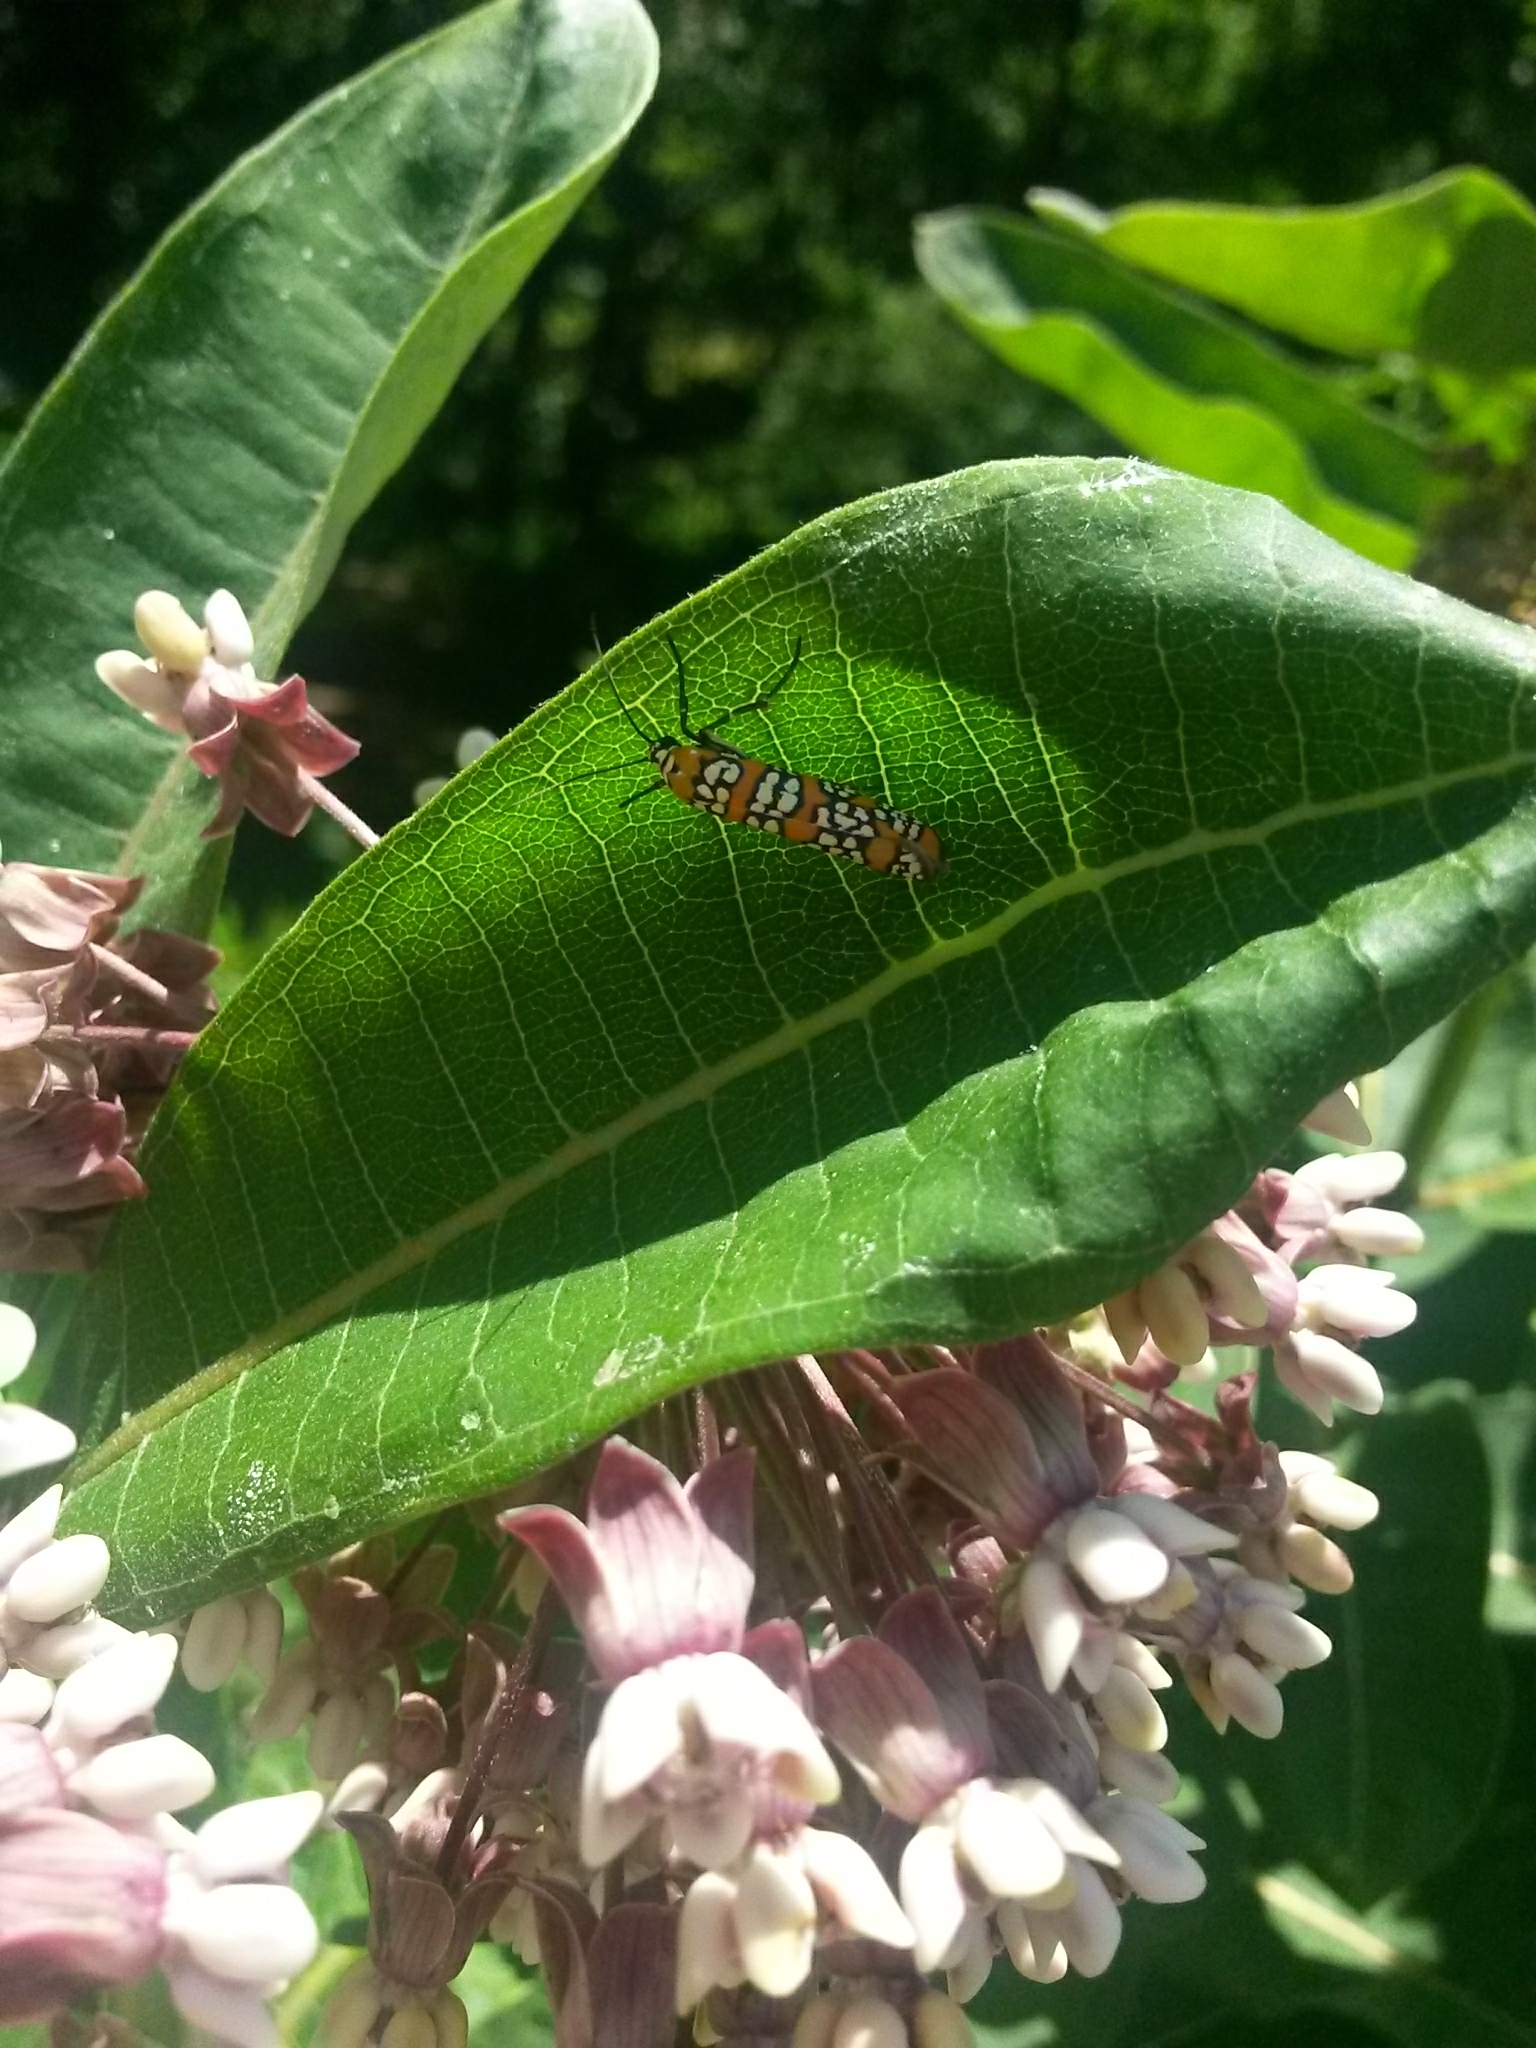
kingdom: Animalia
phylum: Arthropoda
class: Insecta
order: Lepidoptera
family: Attevidae
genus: Atteva
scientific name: Atteva punctella
